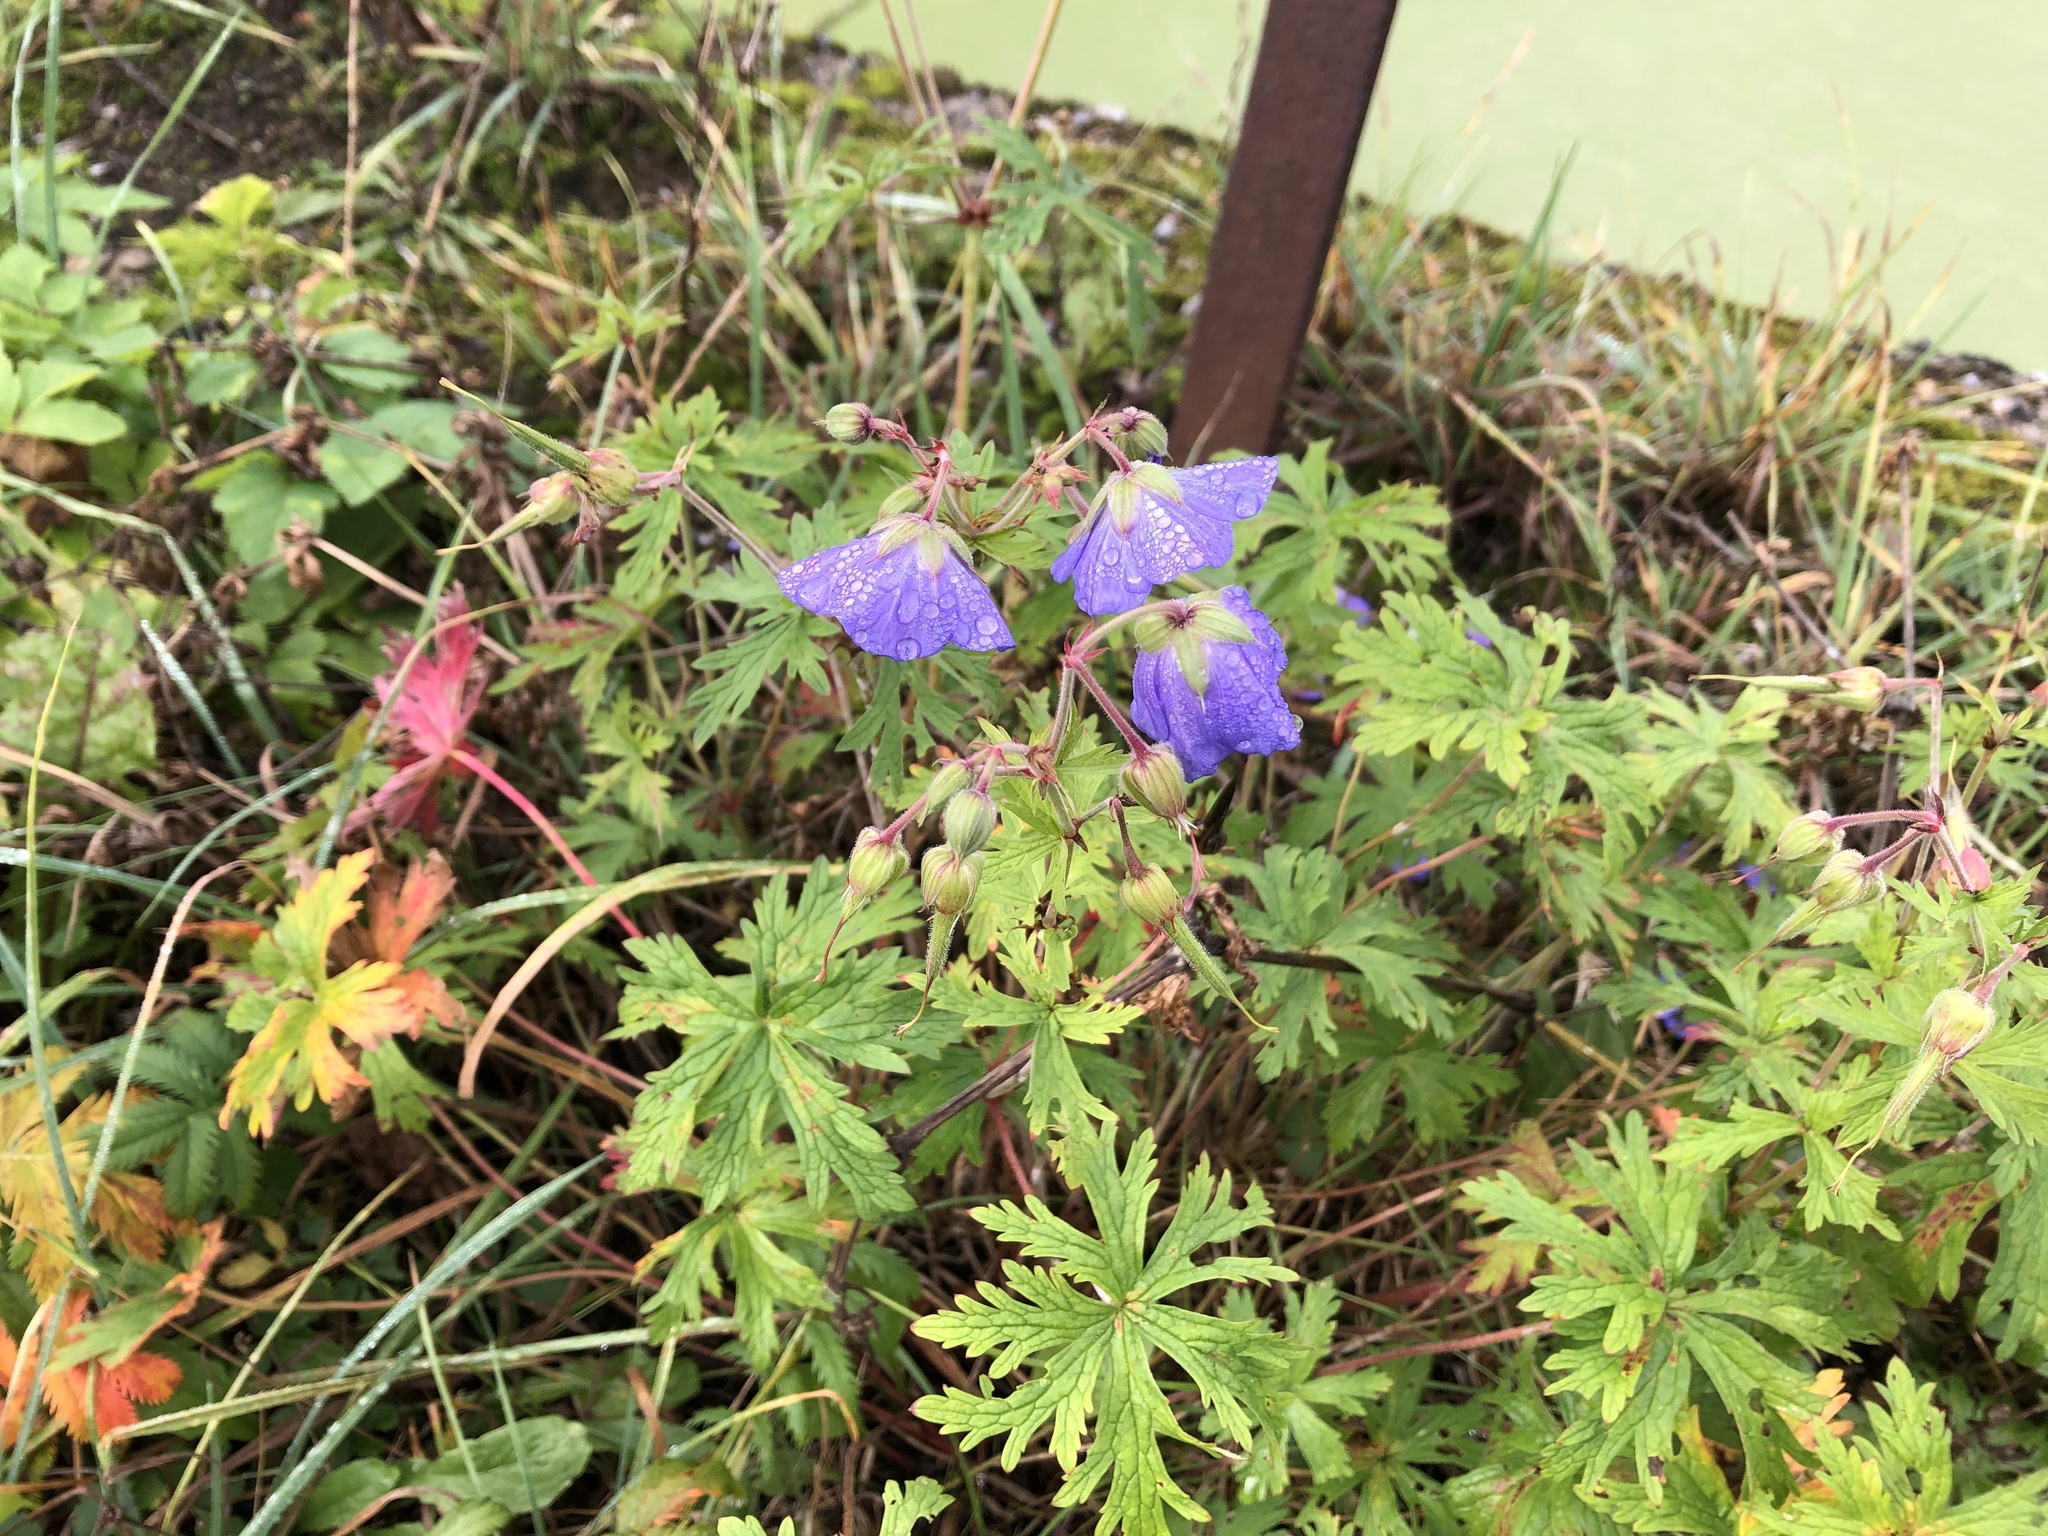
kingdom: Plantae
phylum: Tracheophyta
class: Magnoliopsida
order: Geraniales
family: Geraniaceae
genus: Geranium
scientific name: Geranium pratense
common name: Meadow crane's-bill
